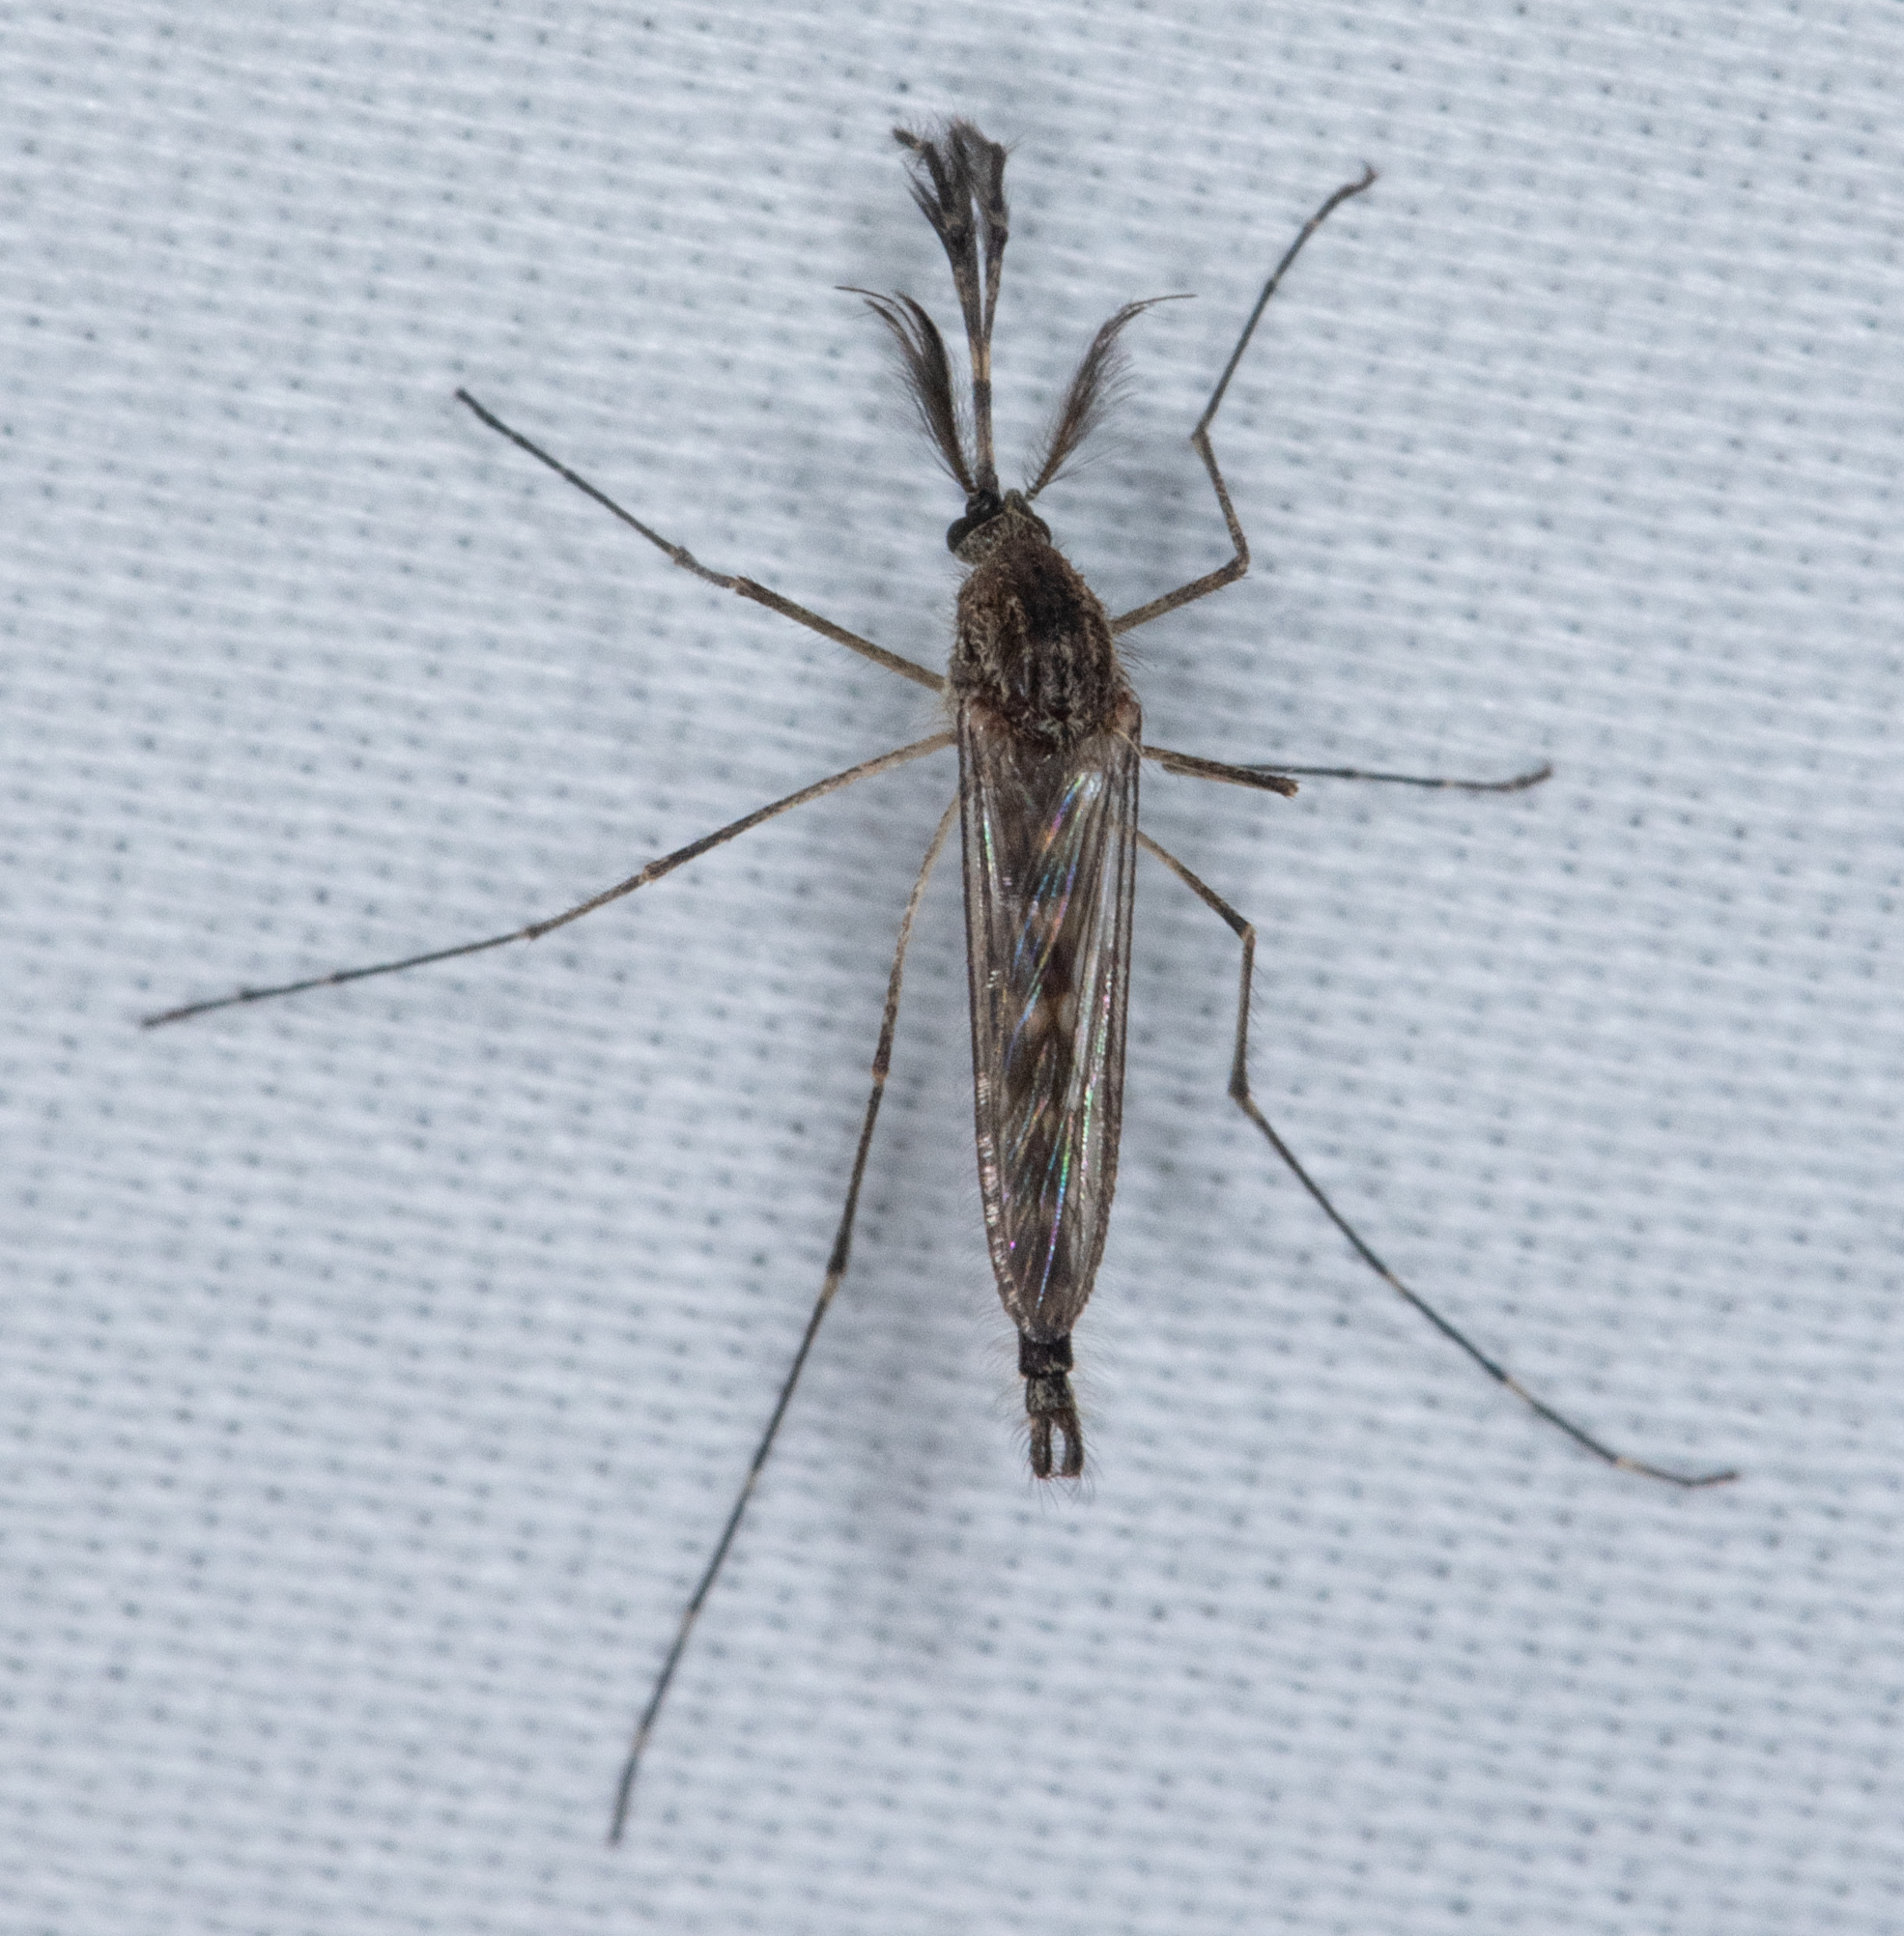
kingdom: Animalia
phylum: Arthropoda
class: Insecta
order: Diptera
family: Culicidae
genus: Aedes
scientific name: Aedes washinoi
